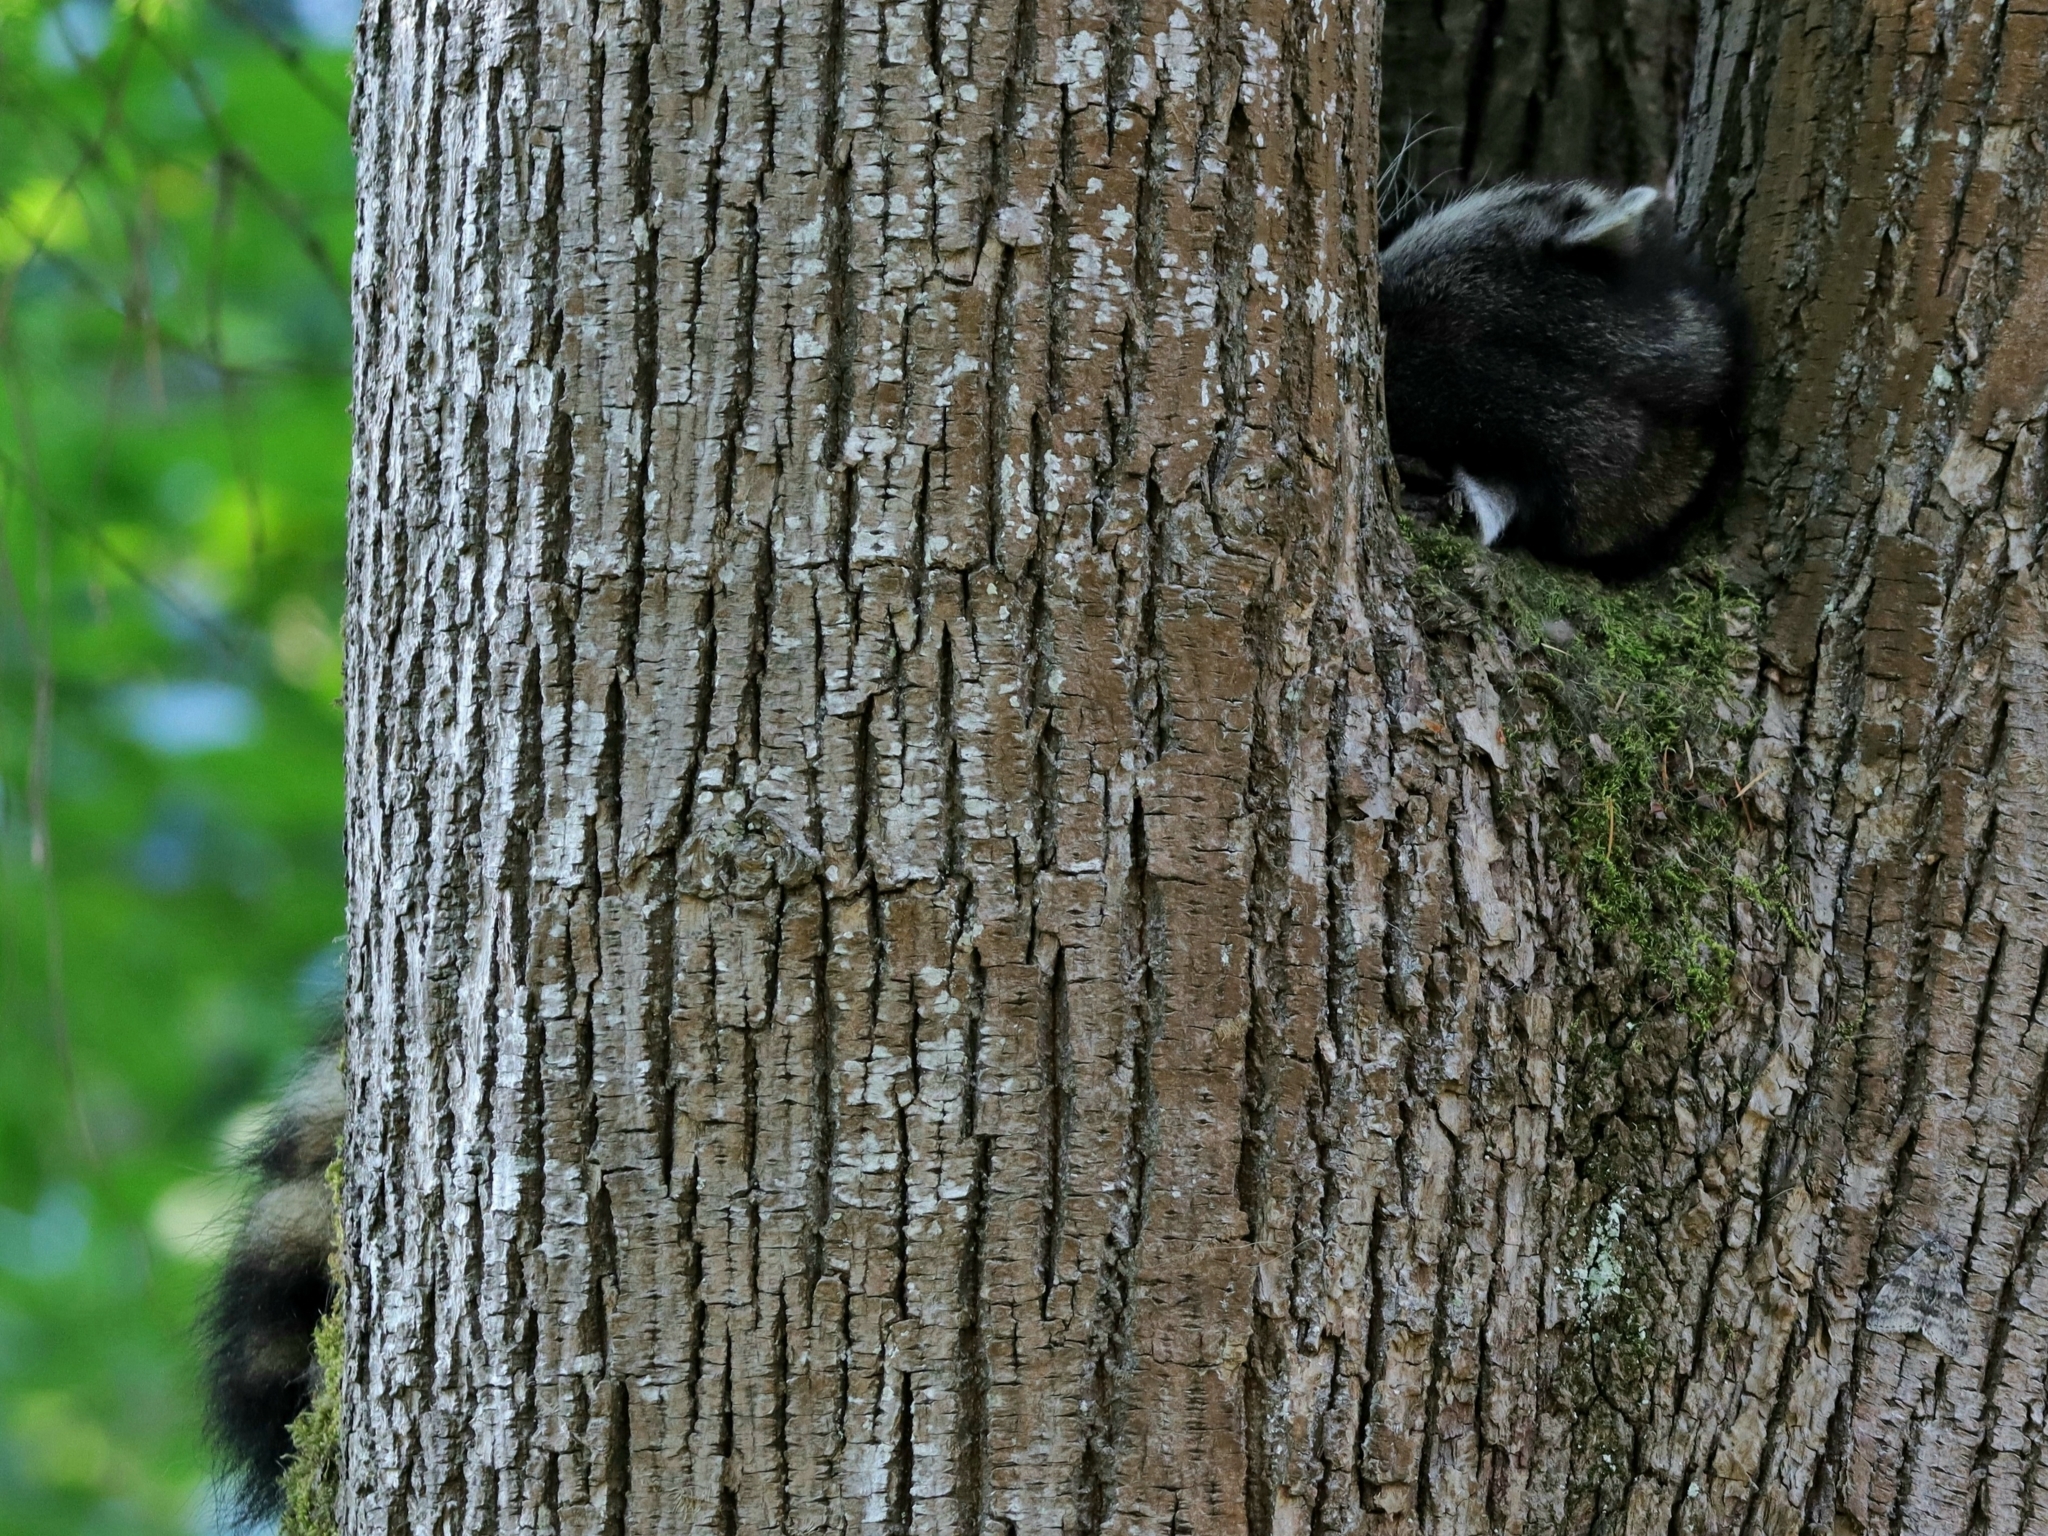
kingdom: Animalia
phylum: Chordata
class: Mammalia
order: Carnivora
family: Procyonidae
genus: Procyon
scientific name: Procyon lotor
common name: Raccoon
